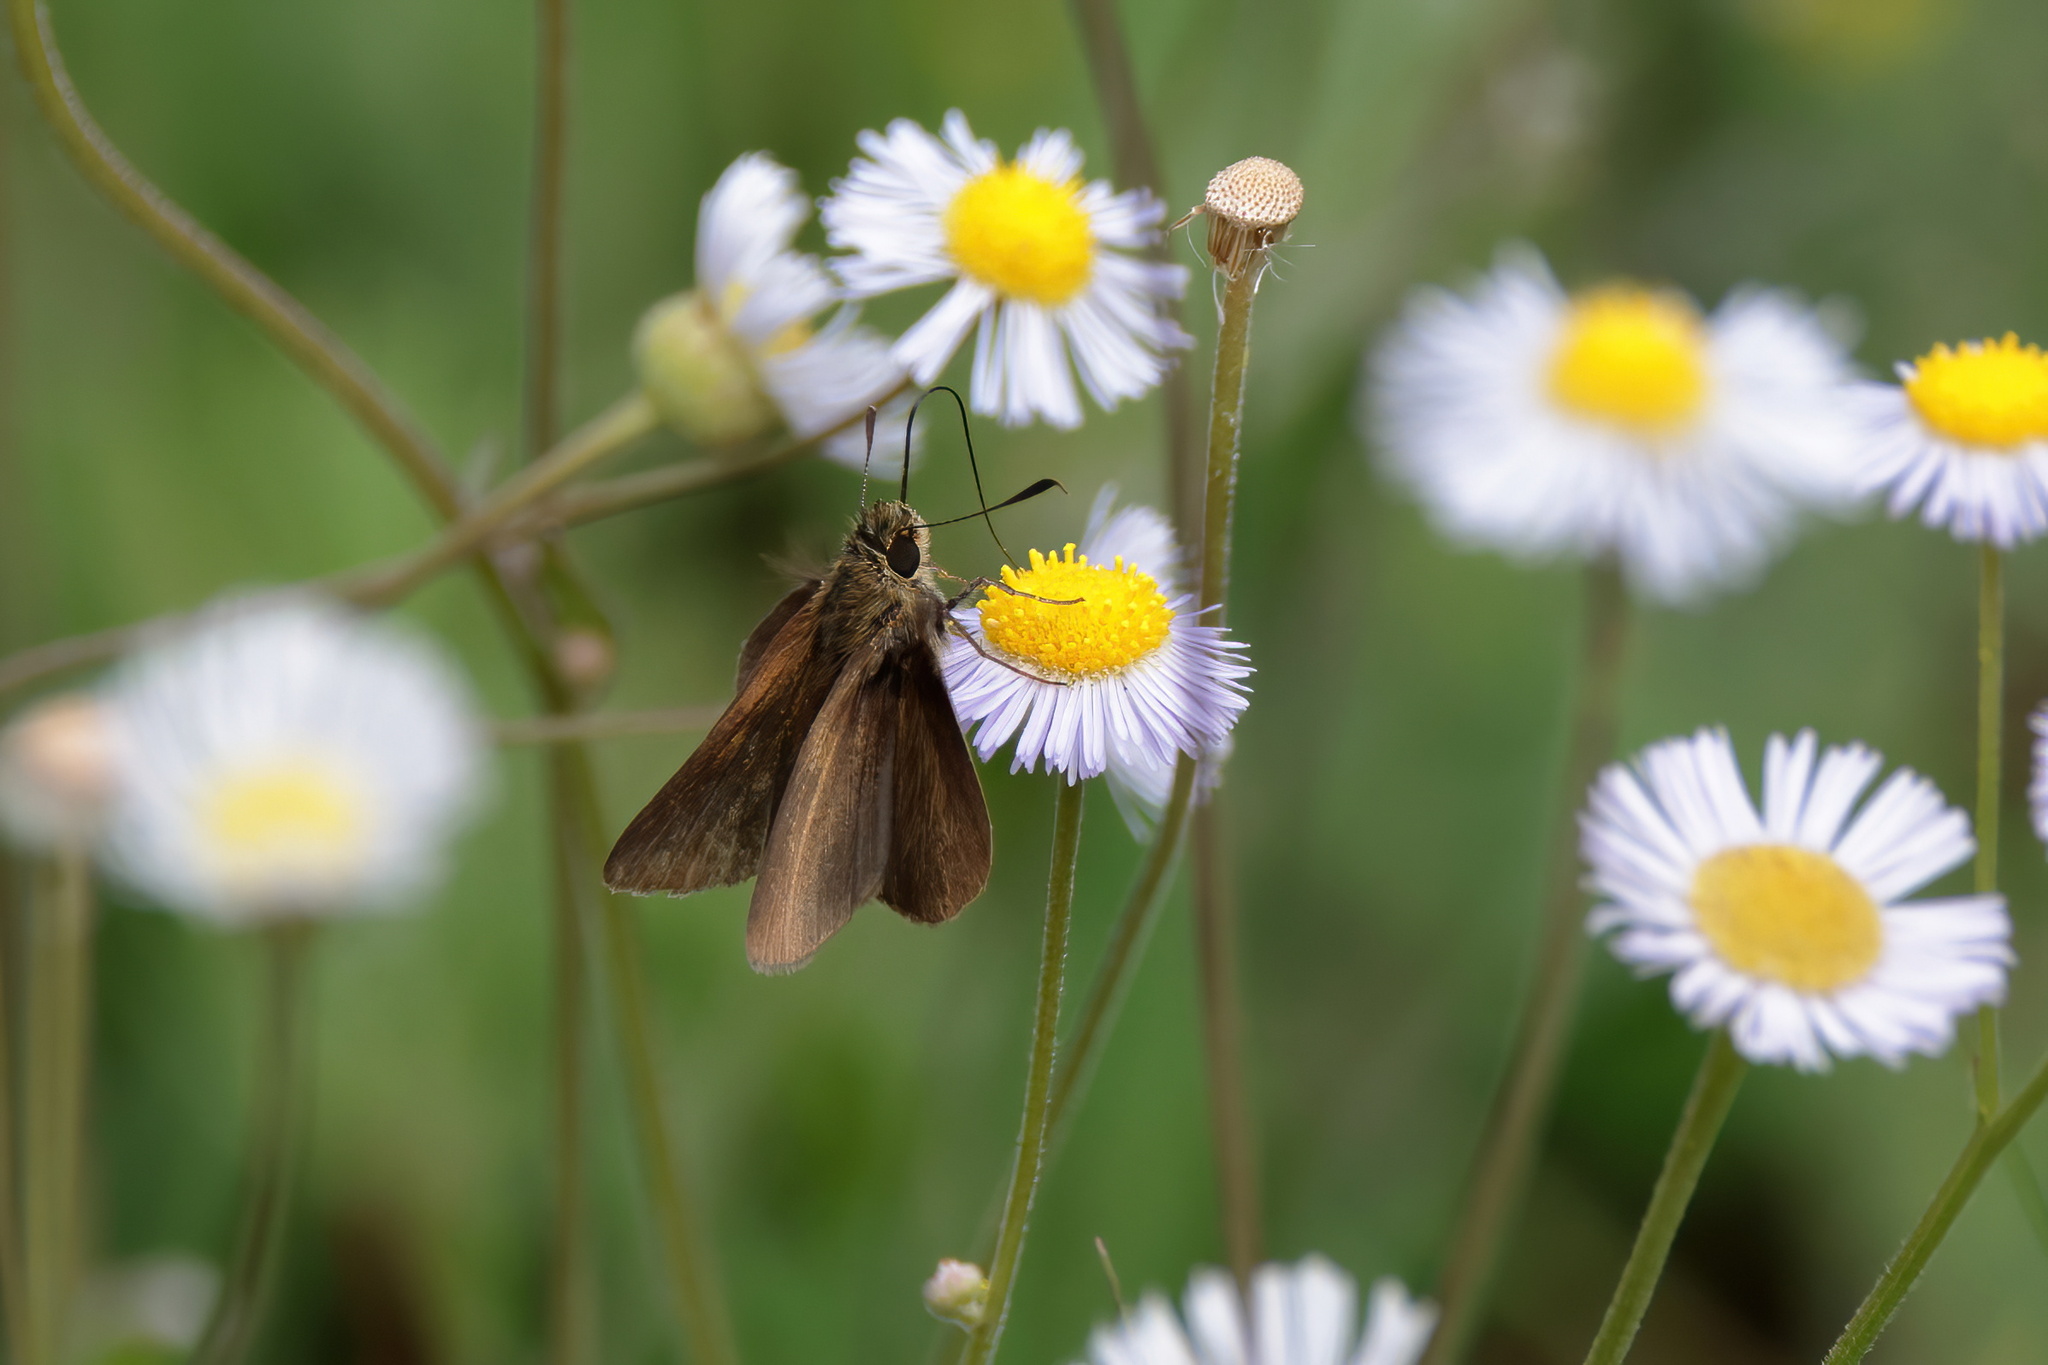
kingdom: Animalia
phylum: Arthropoda
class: Insecta
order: Lepidoptera
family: Hesperiidae
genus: Nastra
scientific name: Nastra lherminier
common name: Swarthy skipper
